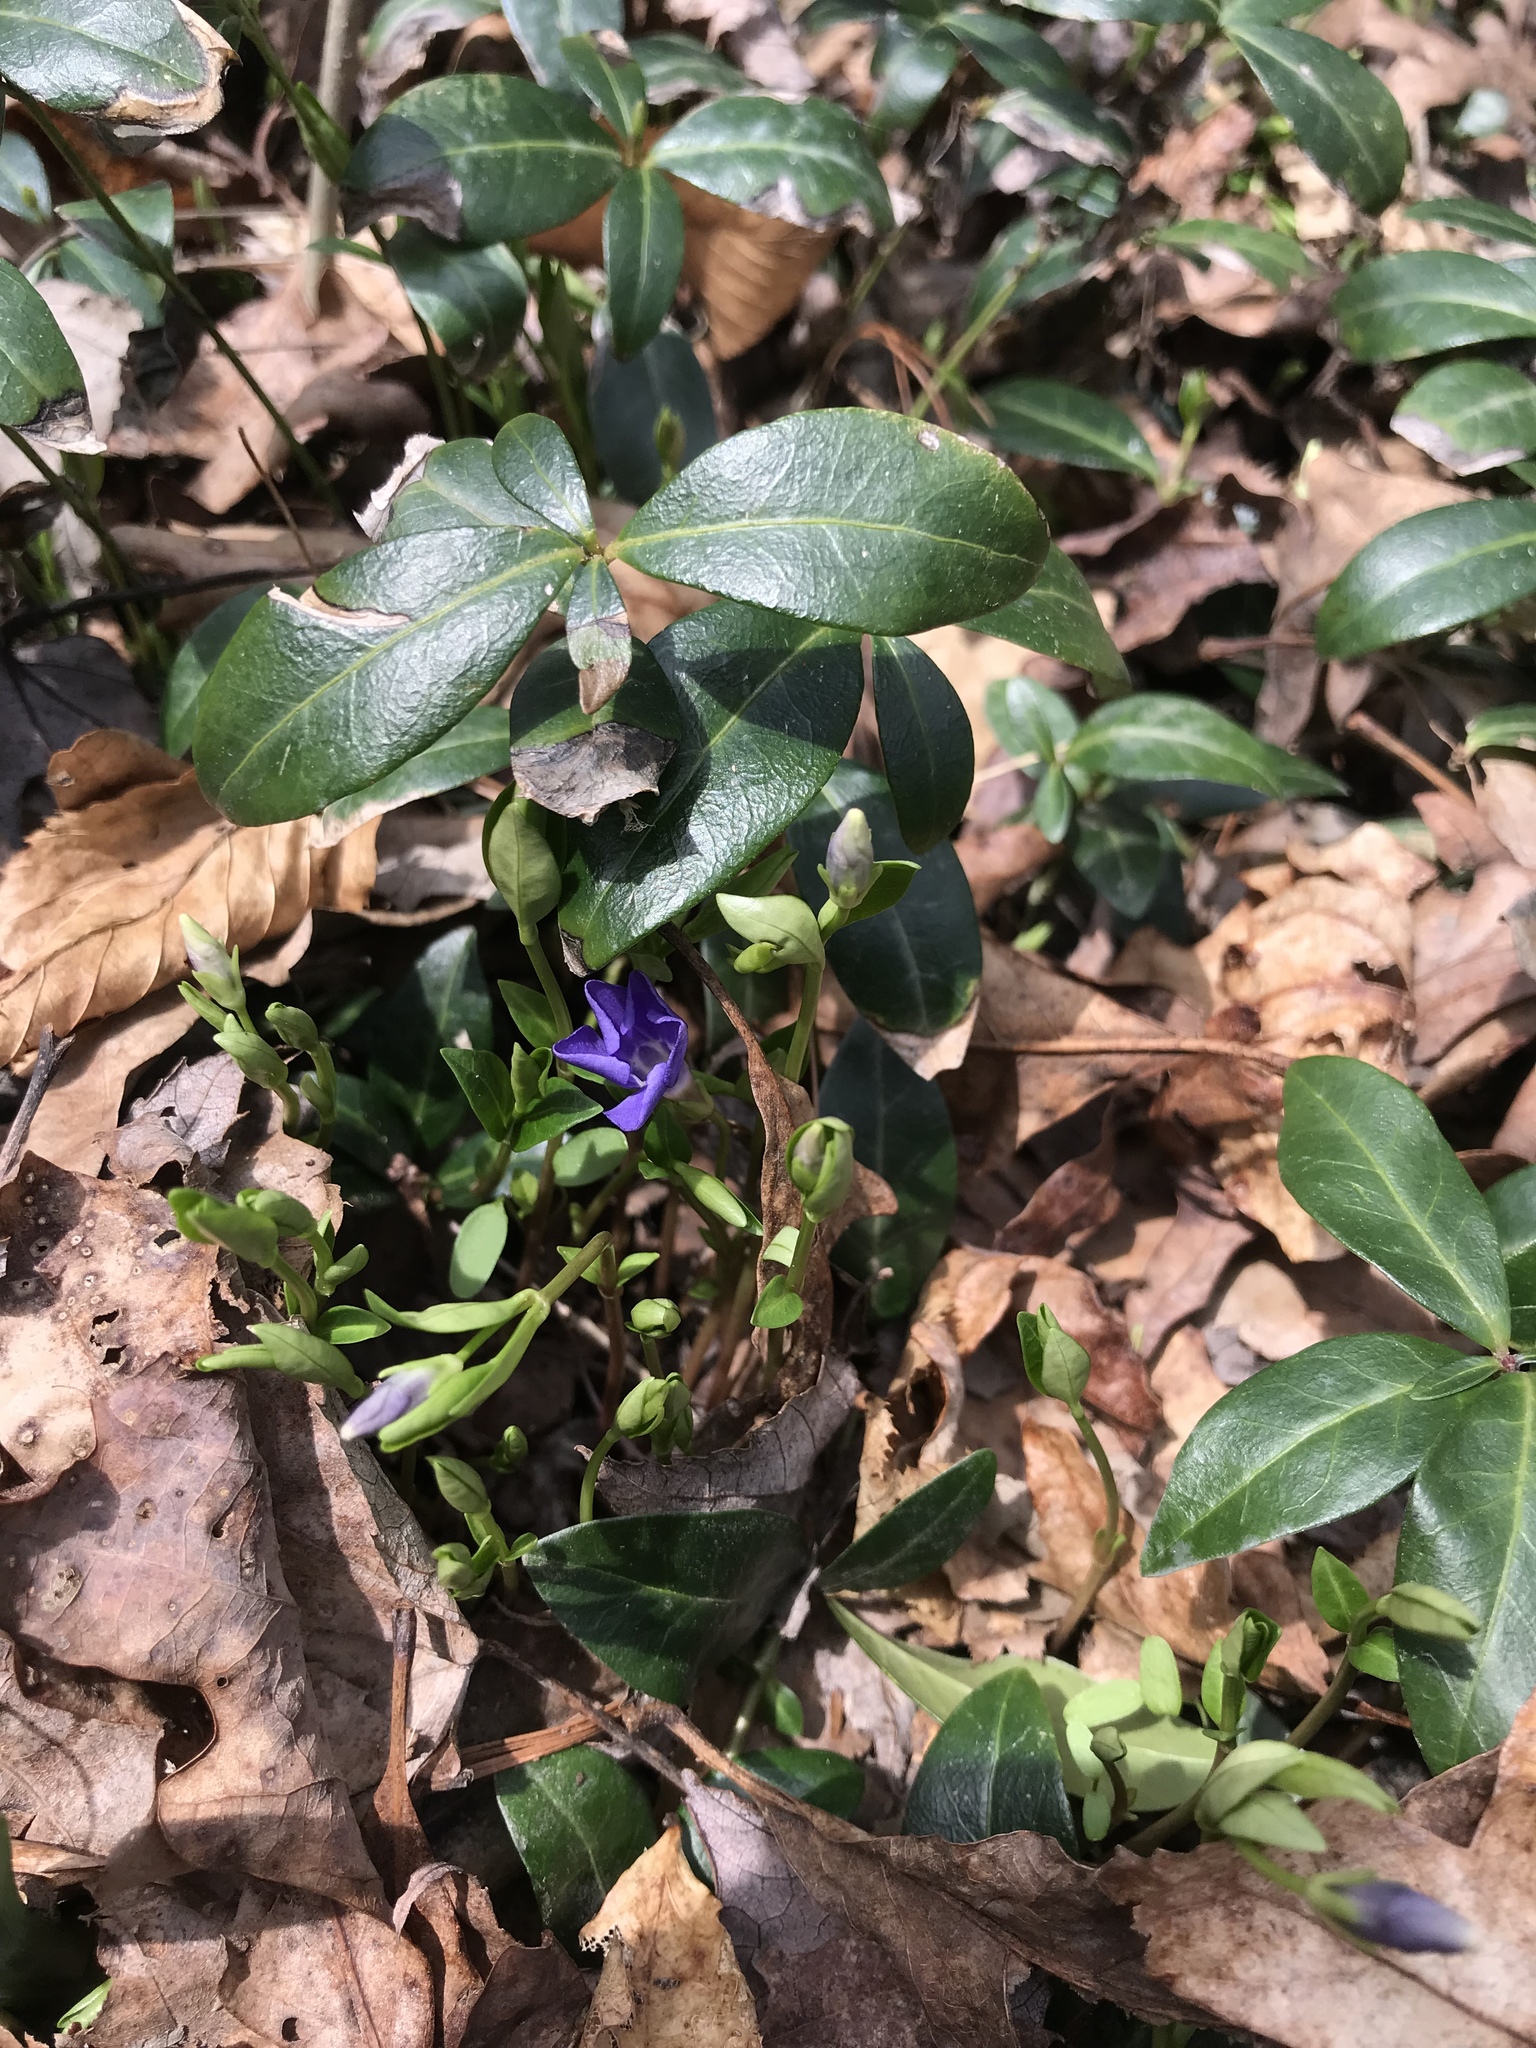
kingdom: Plantae
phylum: Tracheophyta
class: Magnoliopsida
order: Gentianales
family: Apocynaceae
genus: Vinca
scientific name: Vinca minor
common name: Lesser periwinkle
